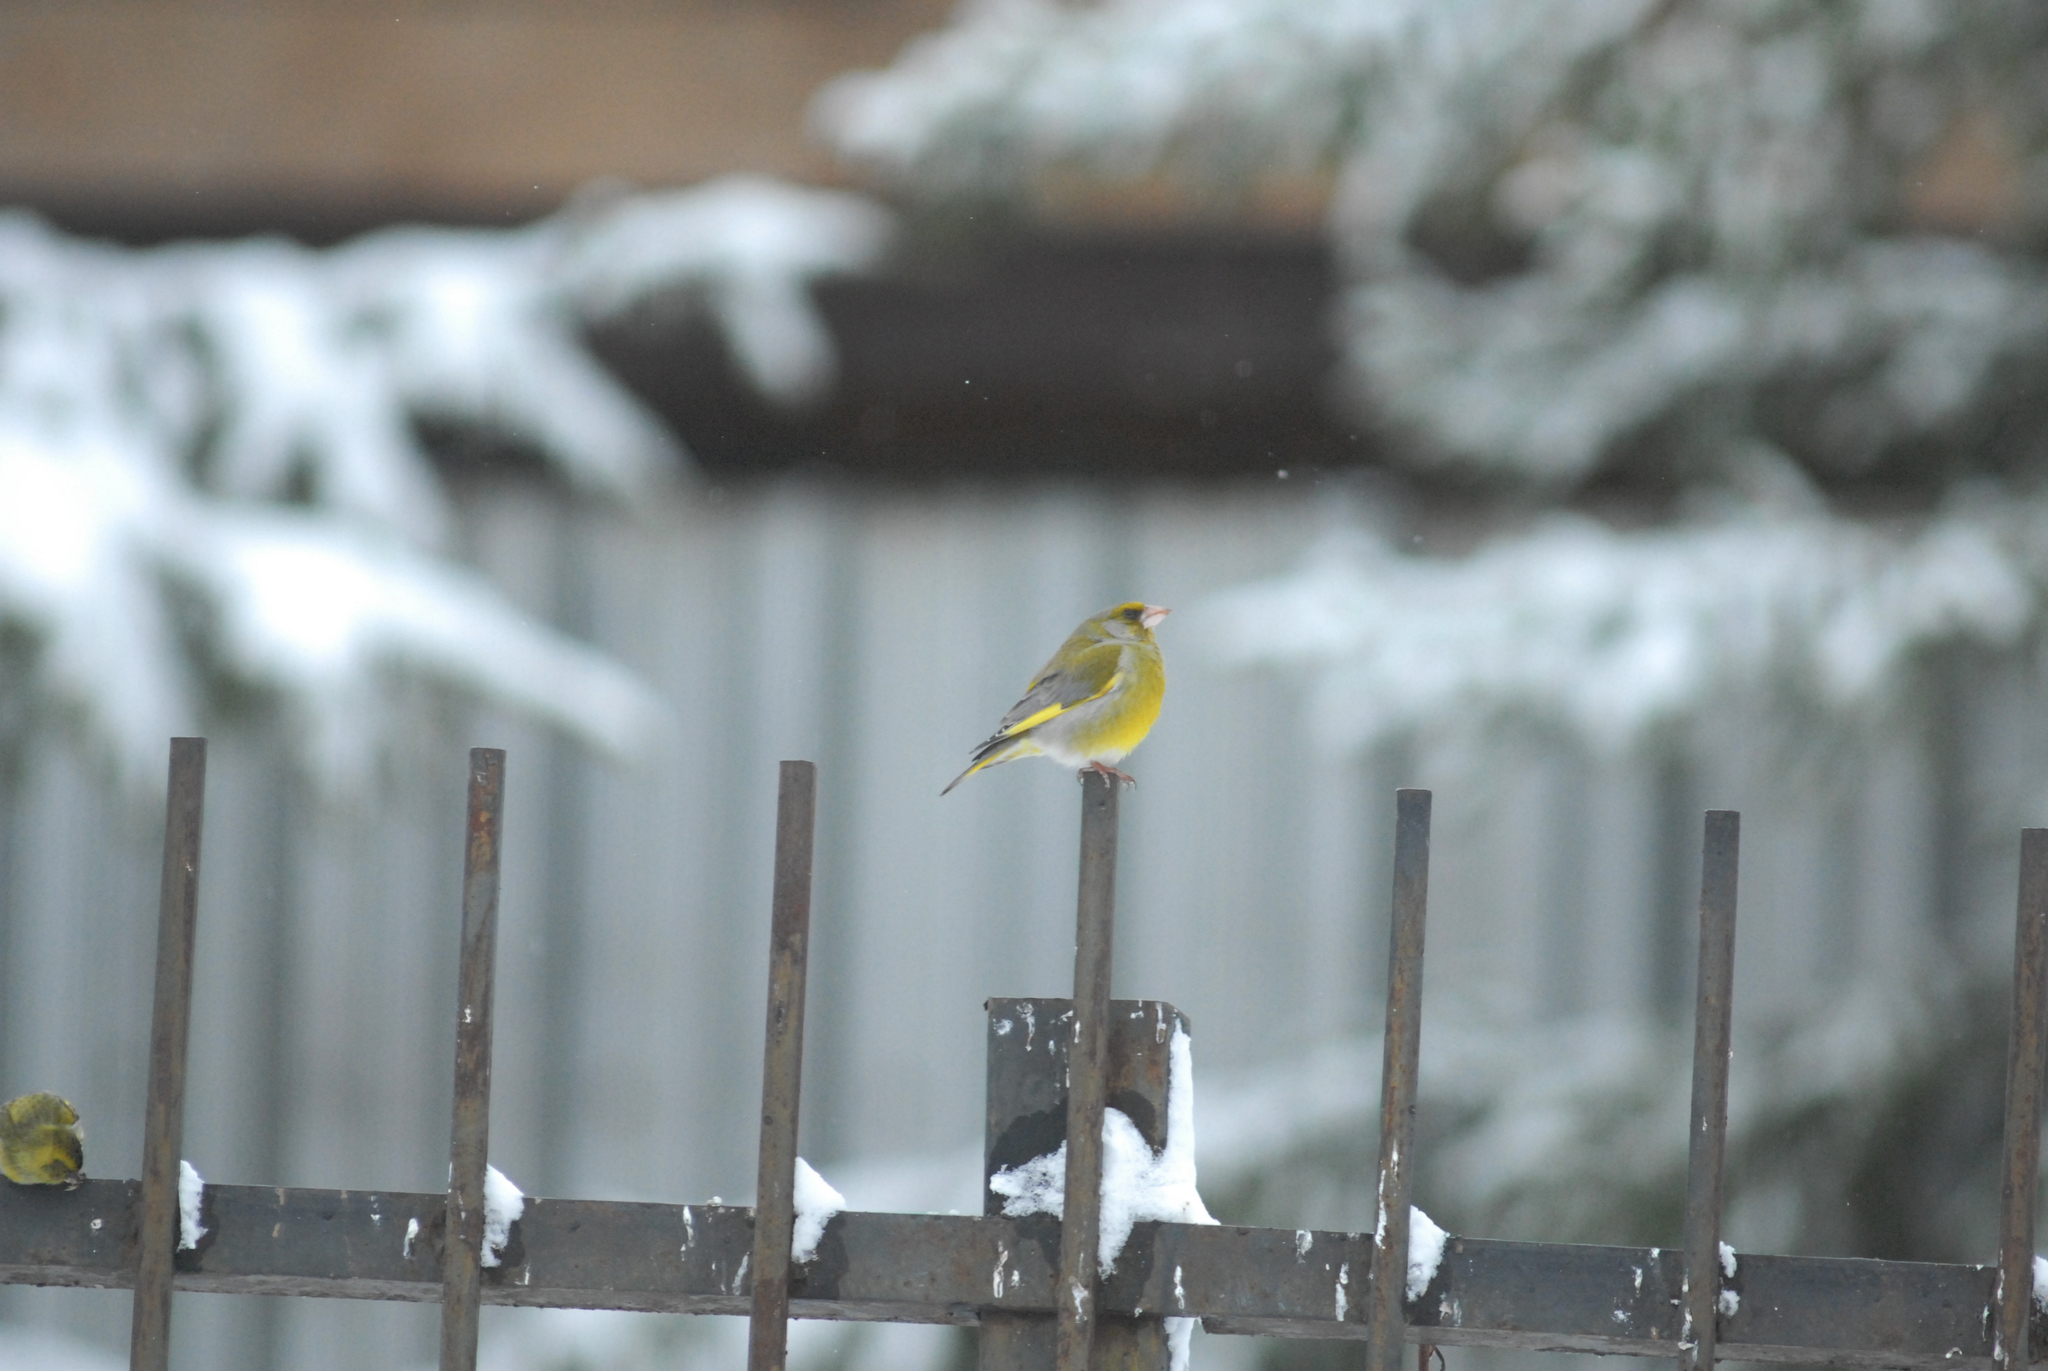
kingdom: Plantae
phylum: Tracheophyta
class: Liliopsida
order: Poales
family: Poaceae
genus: Chloris
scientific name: Chloris chloris
